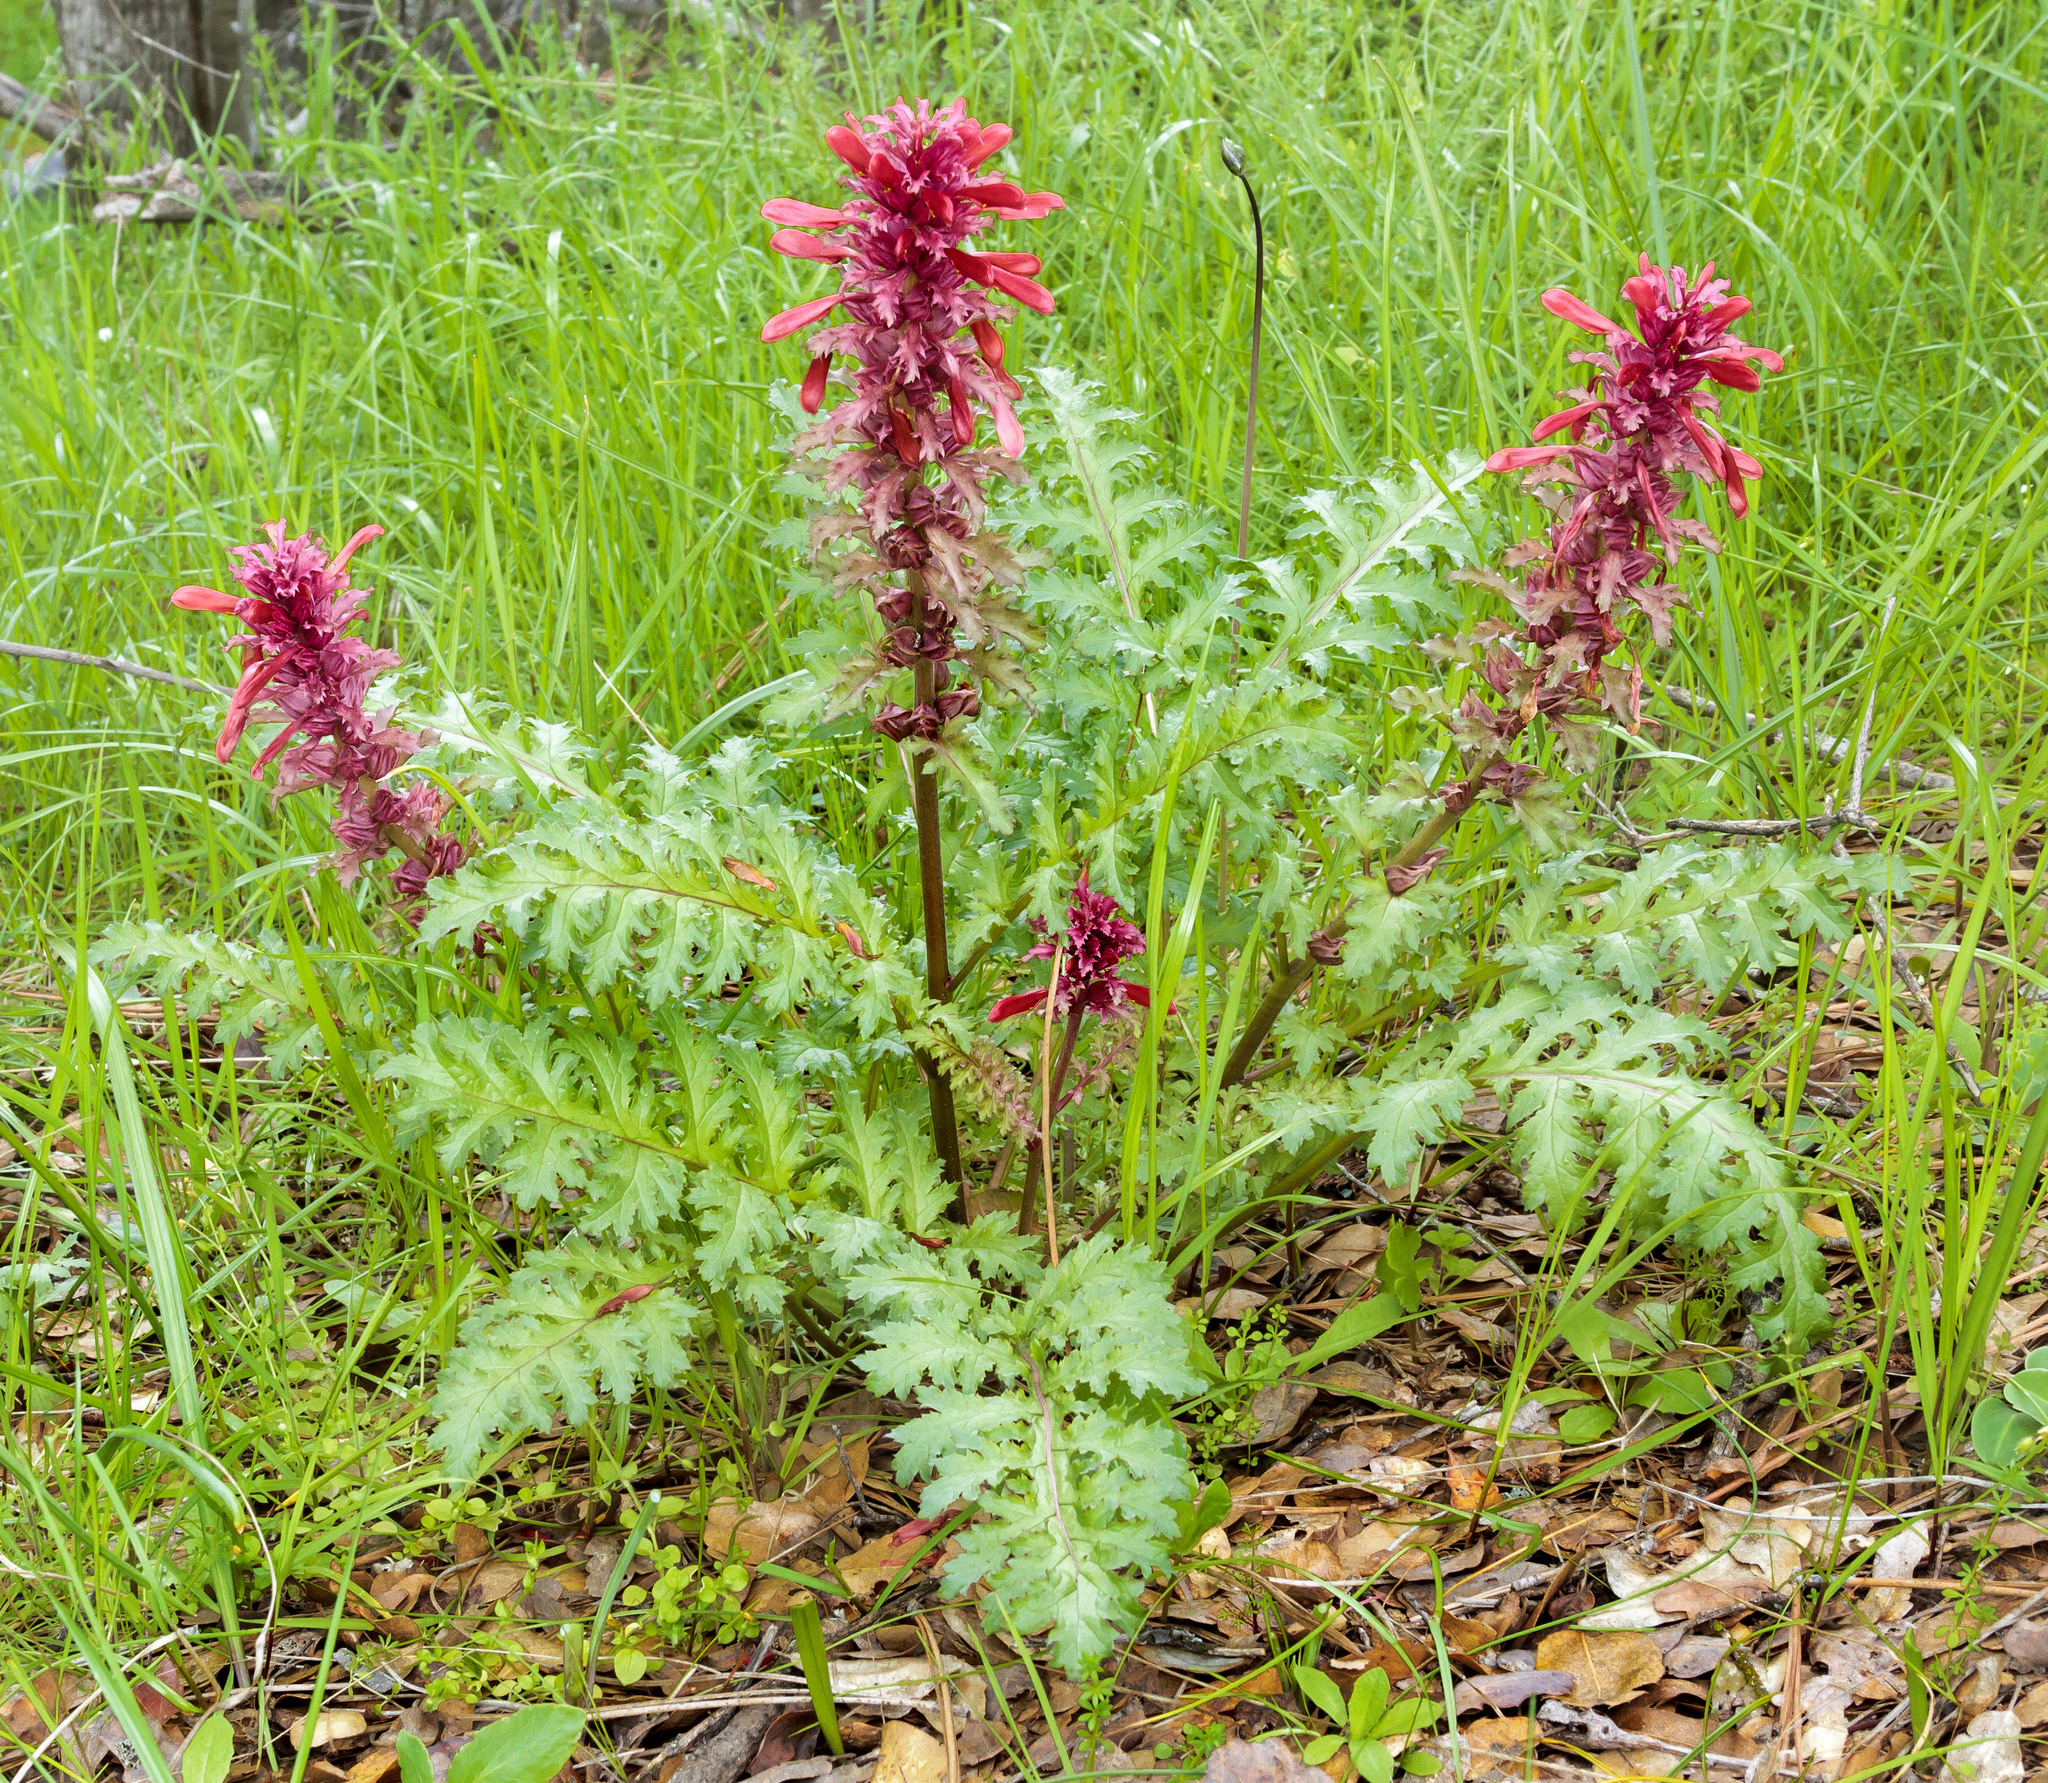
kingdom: Plantae
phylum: Tracheophyta
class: Magnoliopsida
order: Lamiales
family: Orobanchaceae
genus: Pedicularis
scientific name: Pedicularis densiflora
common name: Indian warrior
